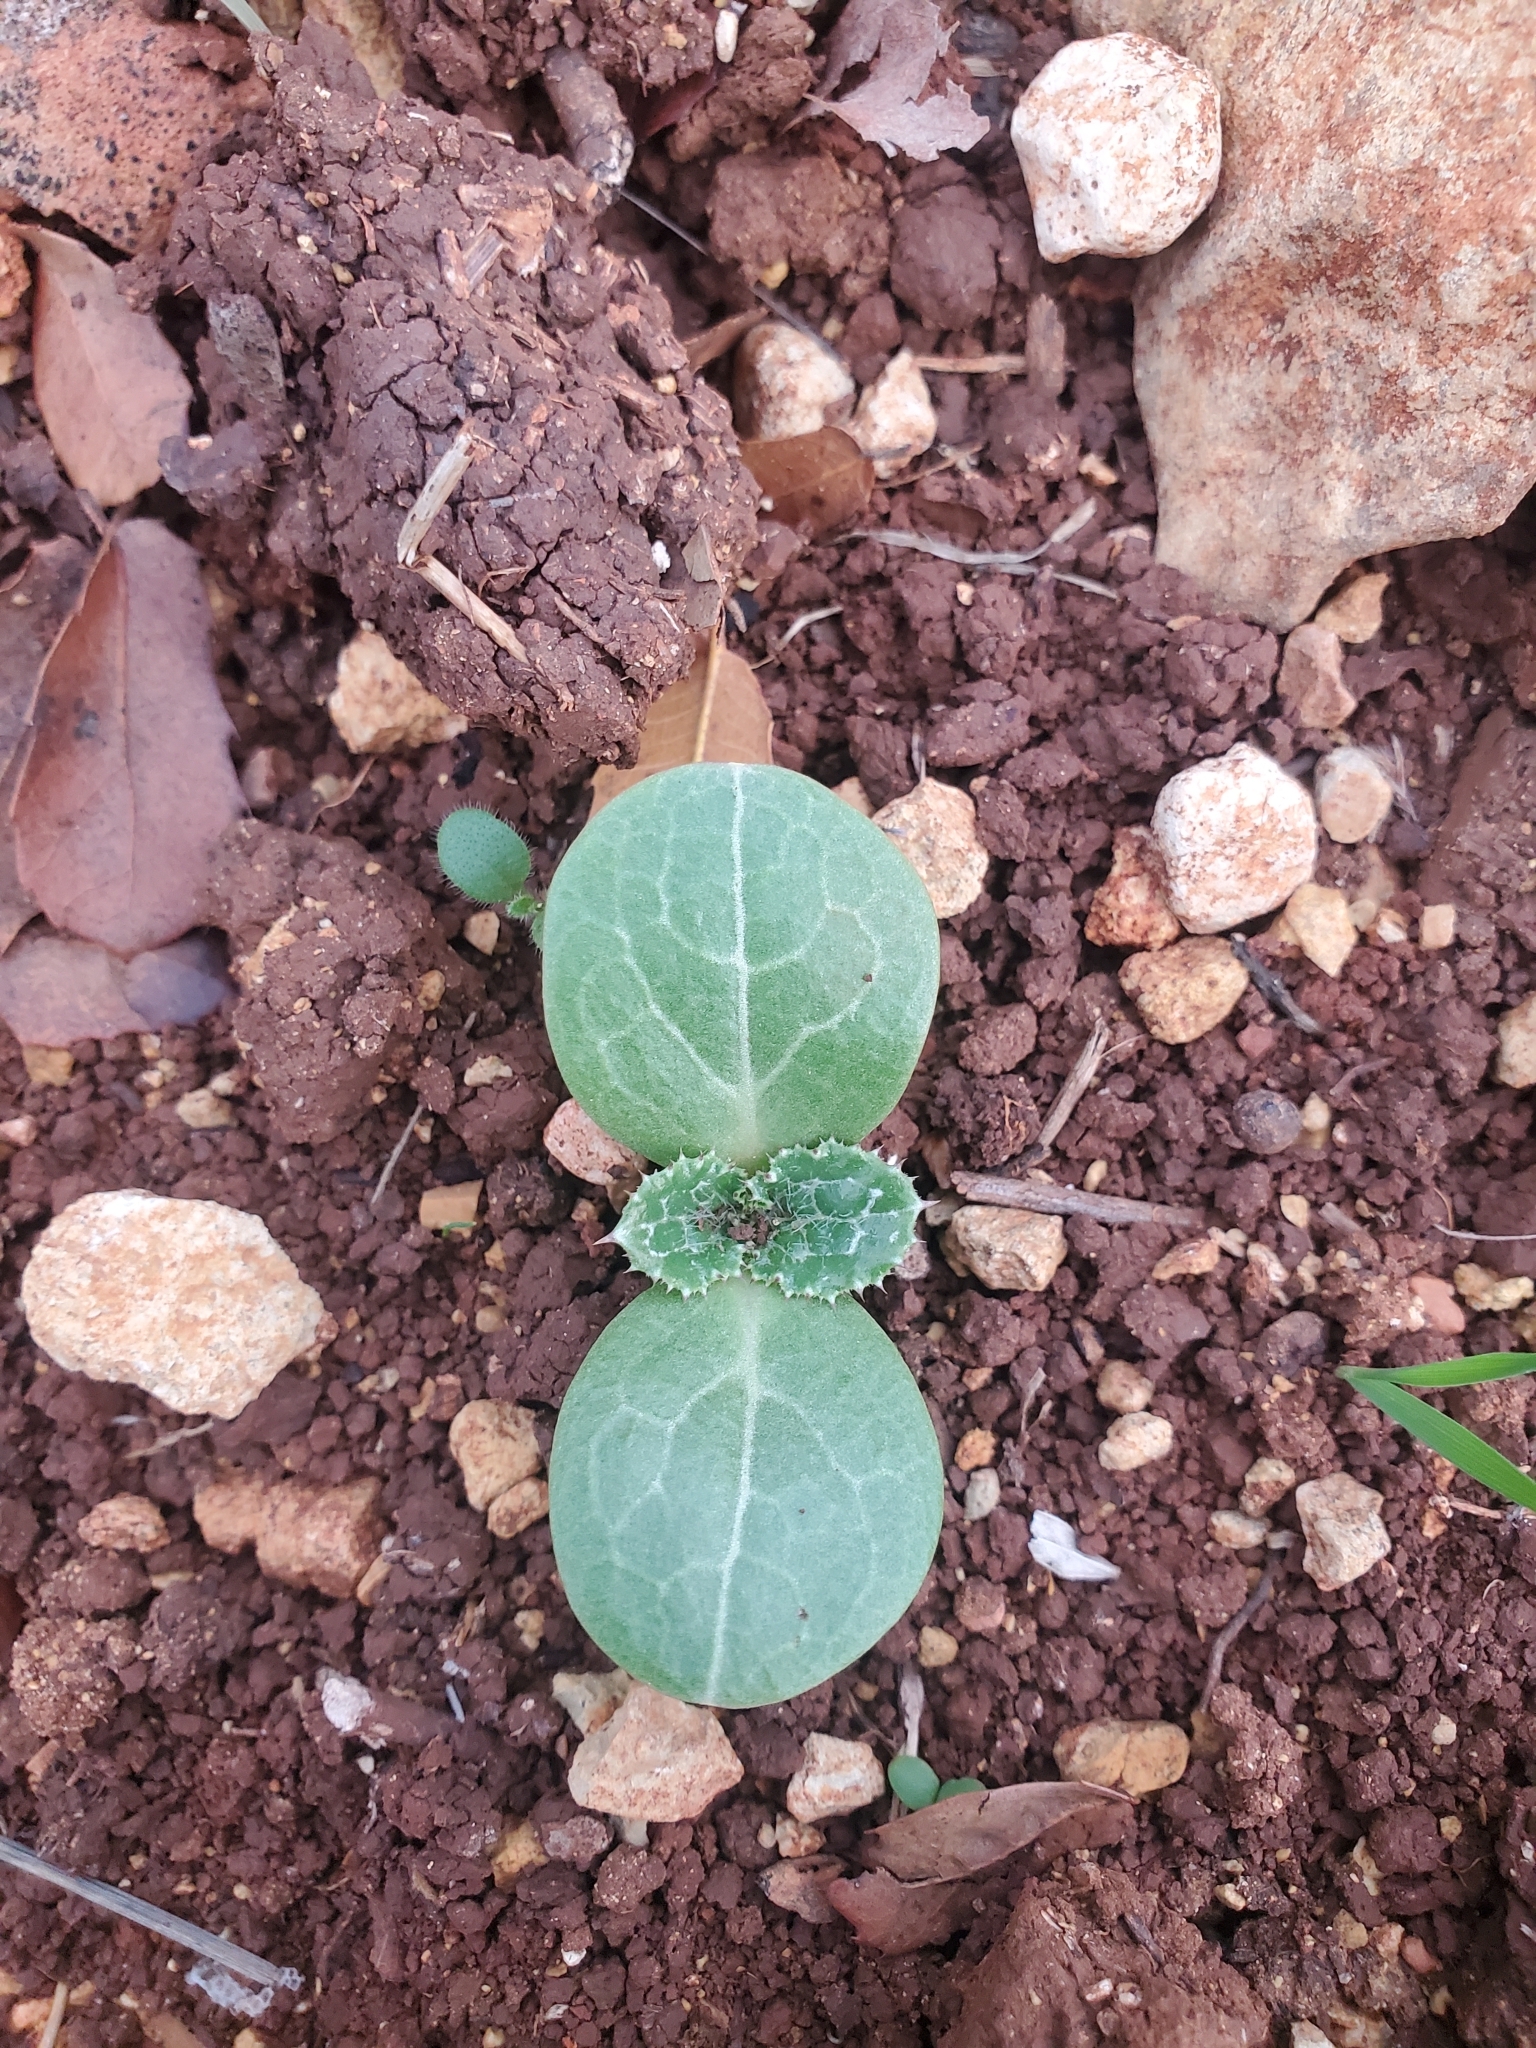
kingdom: Plantae
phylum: Tracheophyta
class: Magnoliopsida
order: Asterales
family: Asteraceae
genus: Silybum
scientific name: Silybum marianum
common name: Milk thistle
